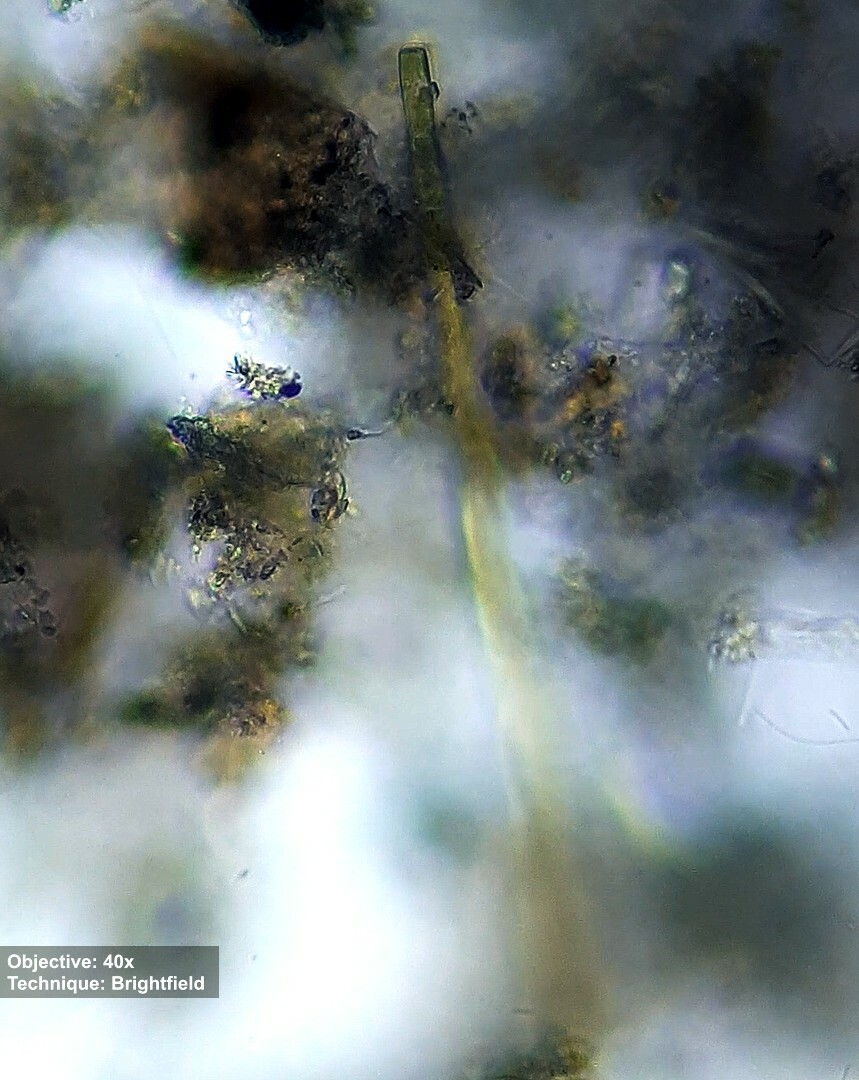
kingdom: Chromista
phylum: Ochrophyta
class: Xanthophyceae
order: Tribonematales
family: Tribonemataceae
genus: Tribonema
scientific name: Tribonema
